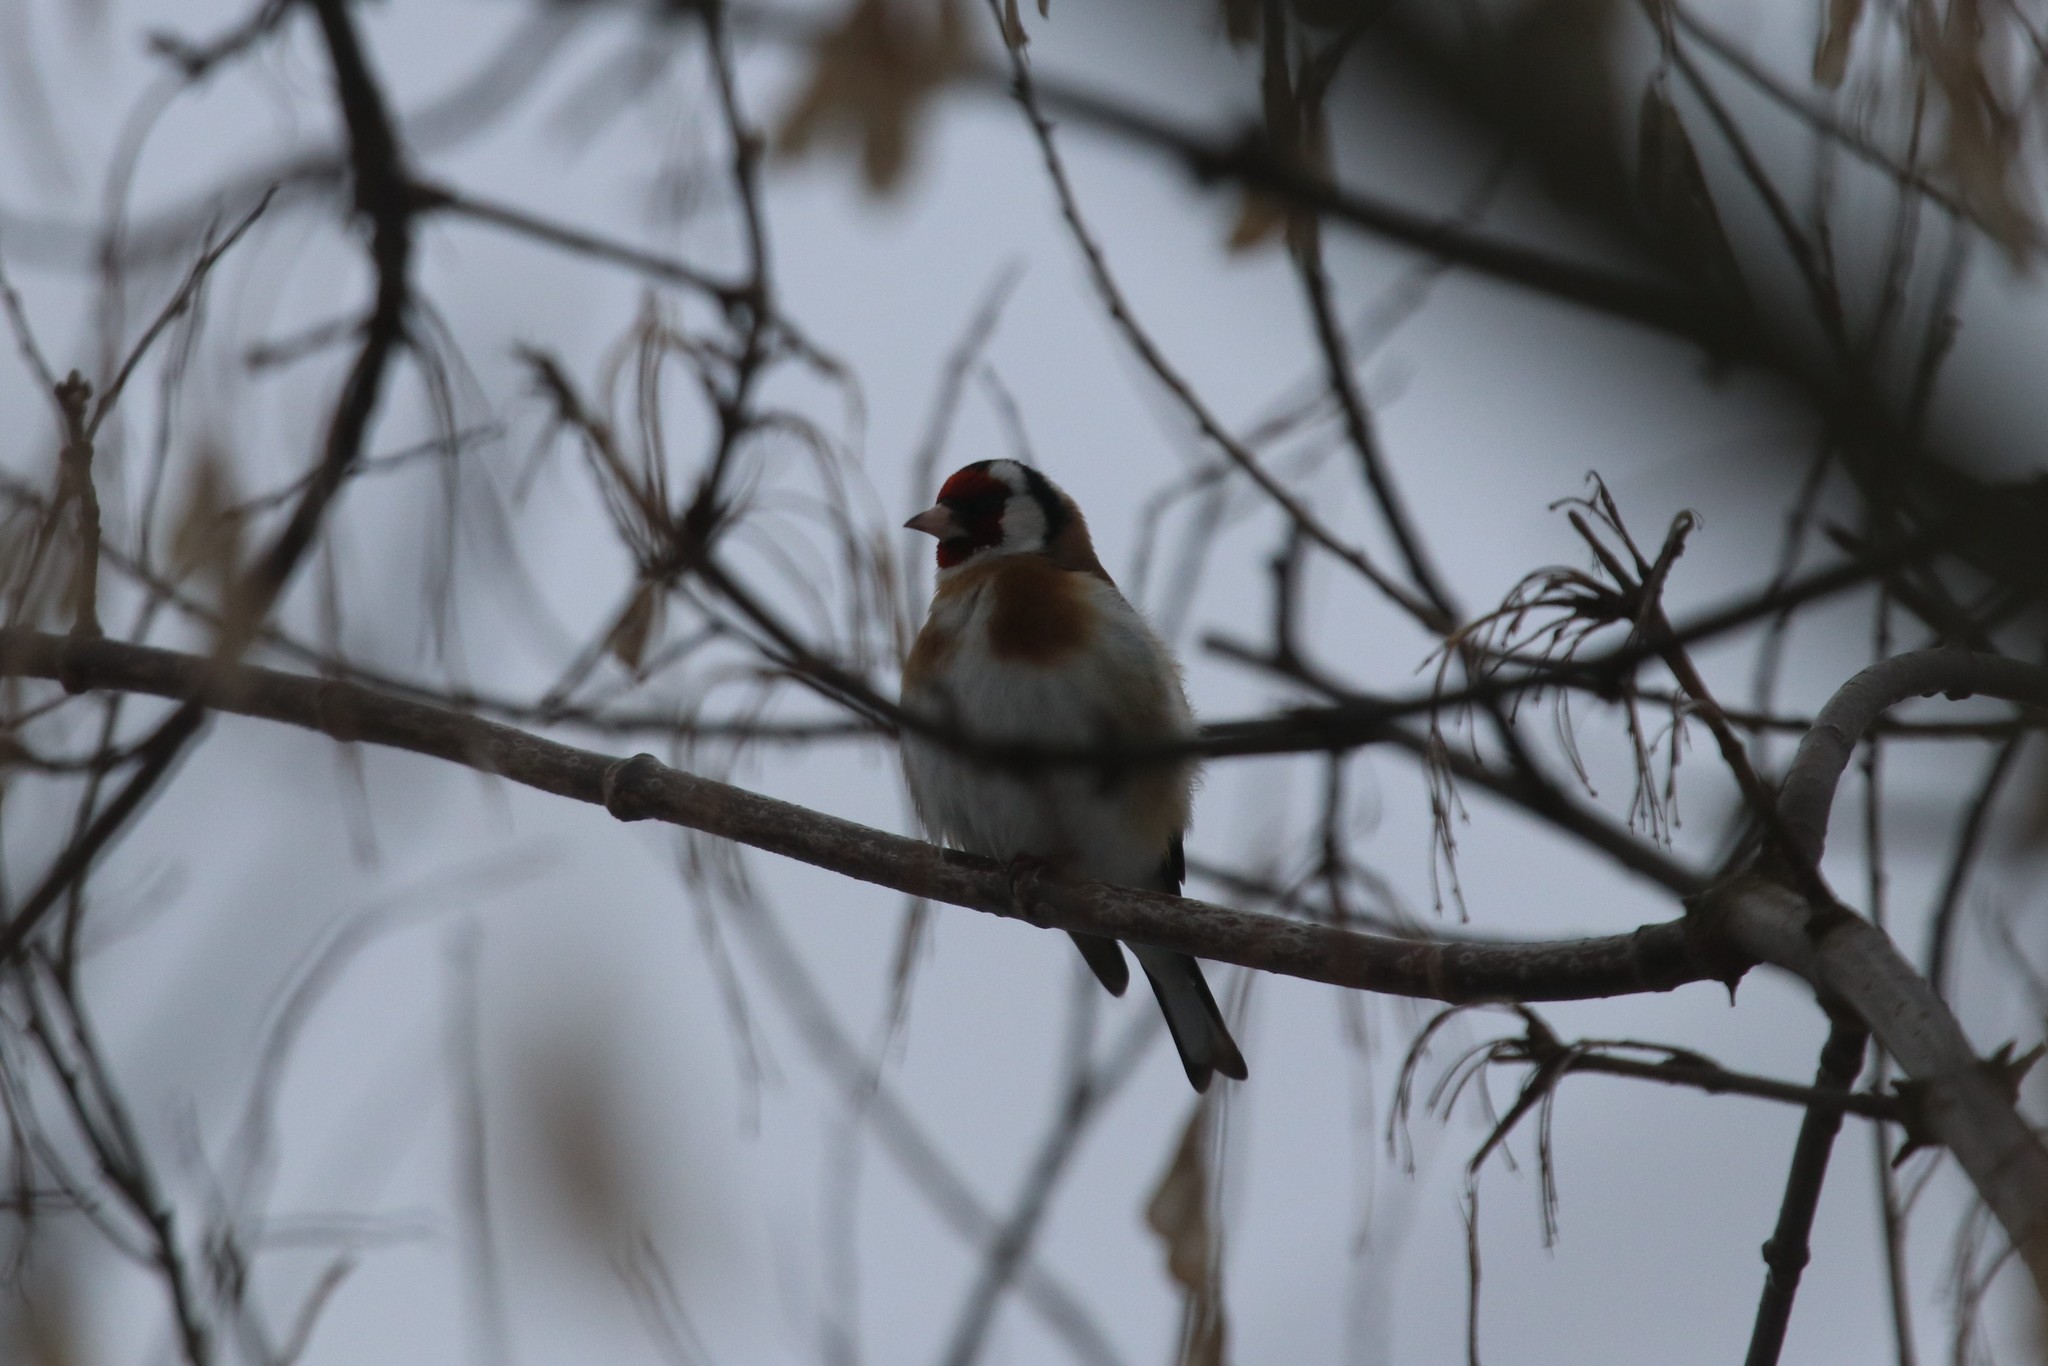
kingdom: Animalia
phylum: Chordata
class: Aves
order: Passeriformes
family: Fringillidae
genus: Carduelis
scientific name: Carduelis carduelis
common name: European goldfinch
